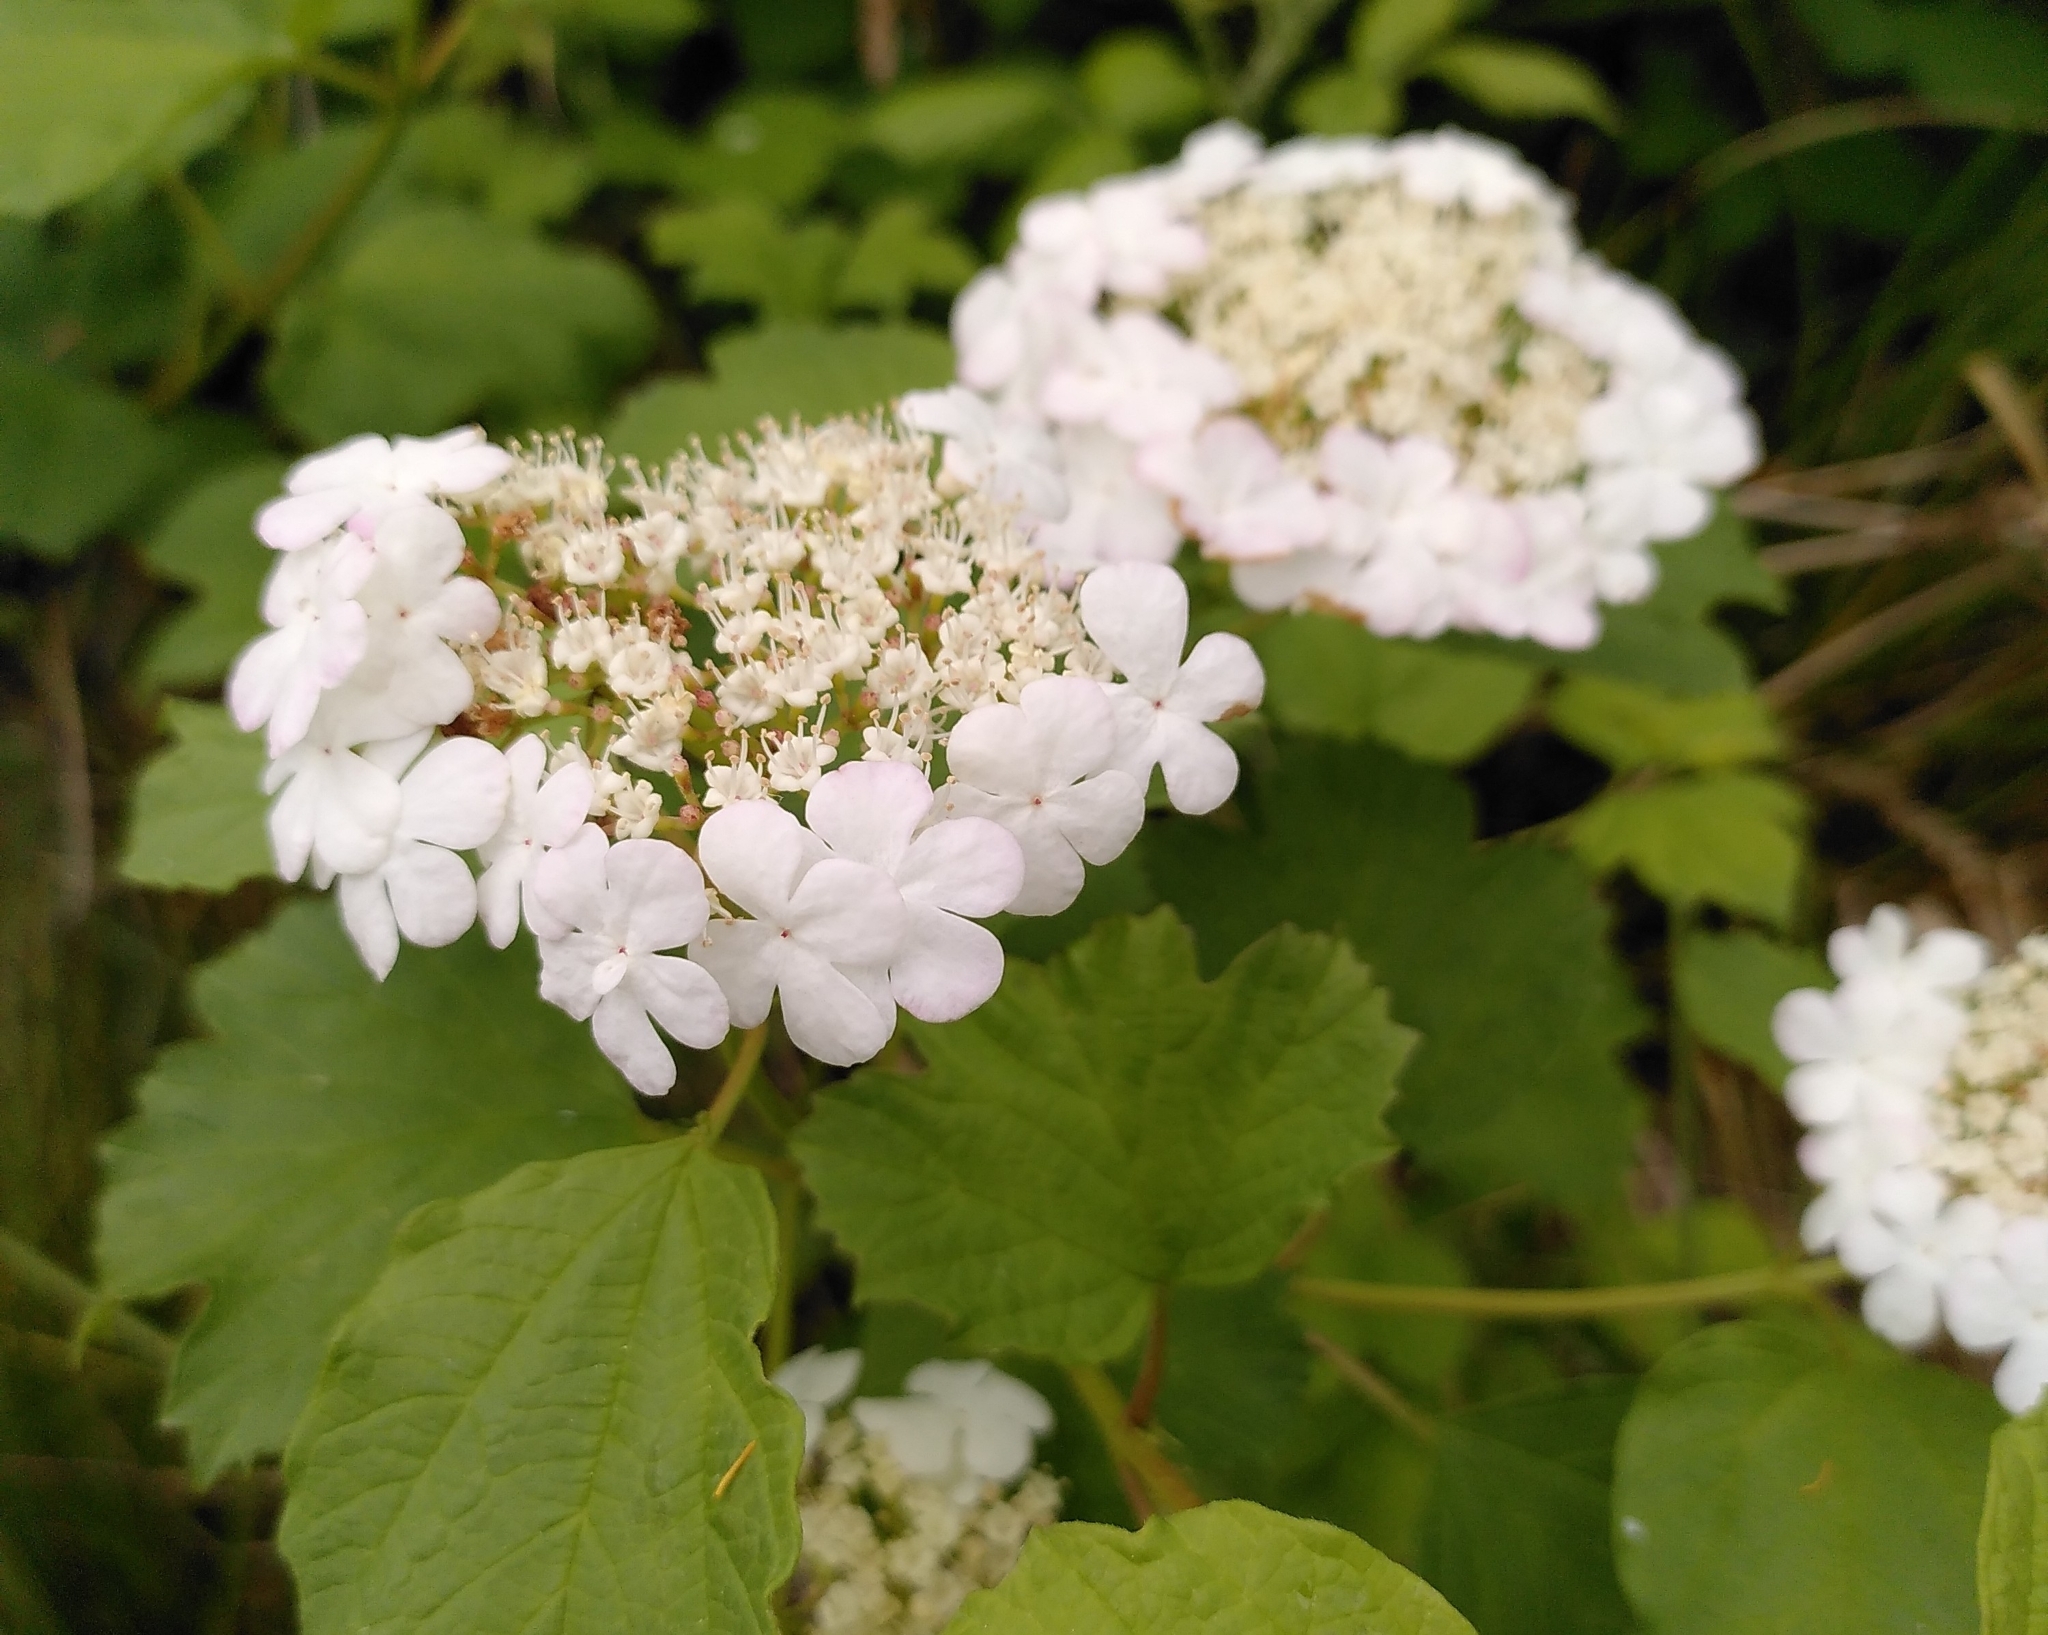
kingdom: Plantae
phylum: Tracheophyta
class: Magnoliopsida
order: Dipsacales
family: Viburnaceae
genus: Viburnum
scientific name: Viburnum opulus
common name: Guelder-rose
